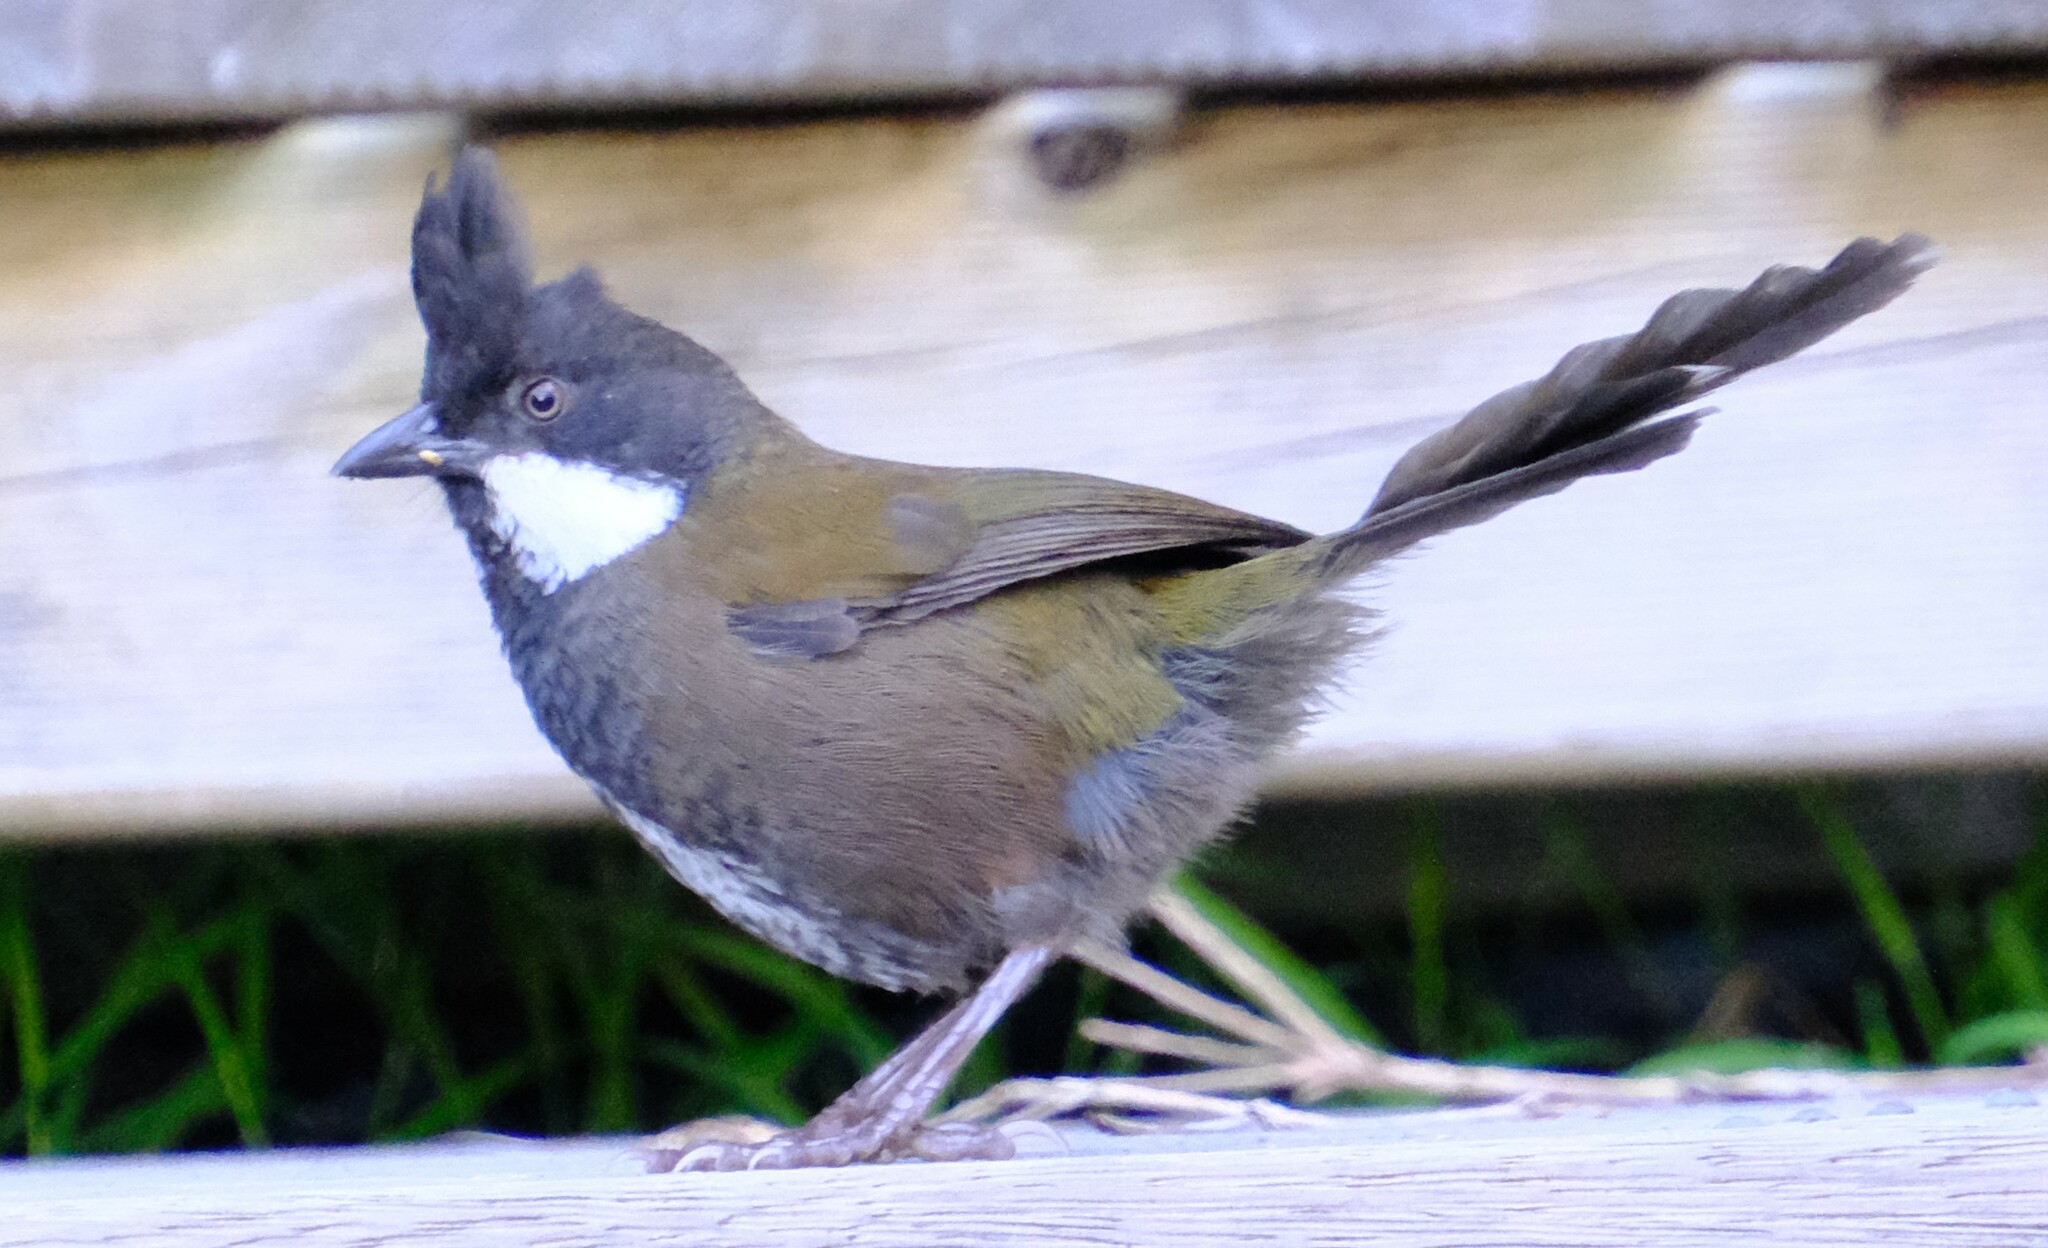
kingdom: Animalia
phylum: Chordata
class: Aves
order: Passeriformes
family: Psophodidae
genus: Psophodes
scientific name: Psophodes olivaceus
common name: Eastern whipbird
